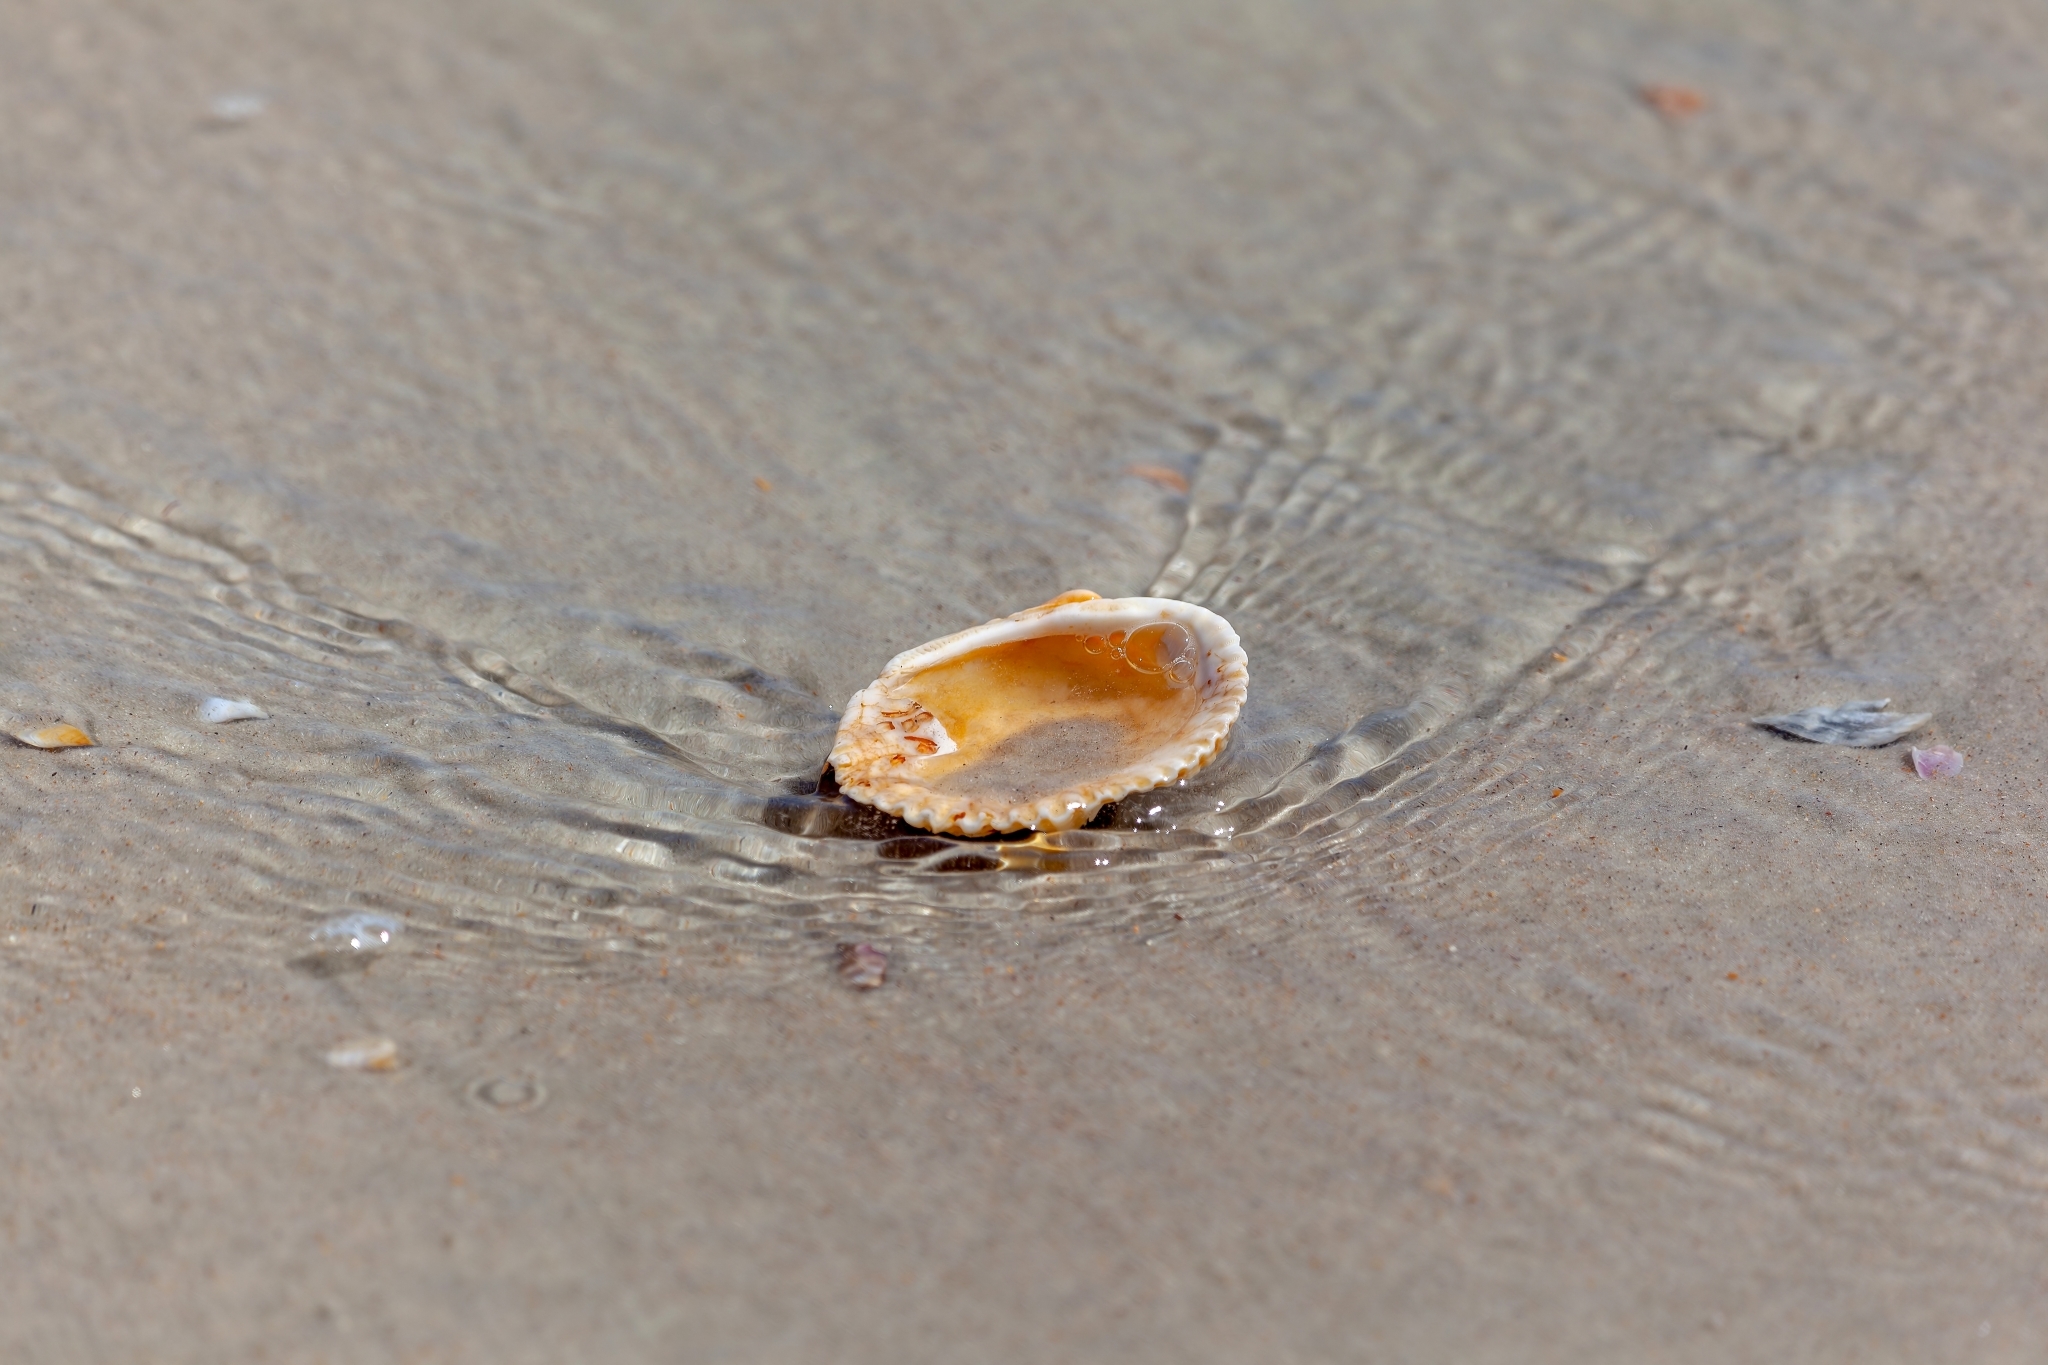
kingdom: Animalia
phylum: Mollusca
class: Bivalvia
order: Arcida
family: Arcidae
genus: Lunarca
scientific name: Lunarca ovalis
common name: Blood ark
